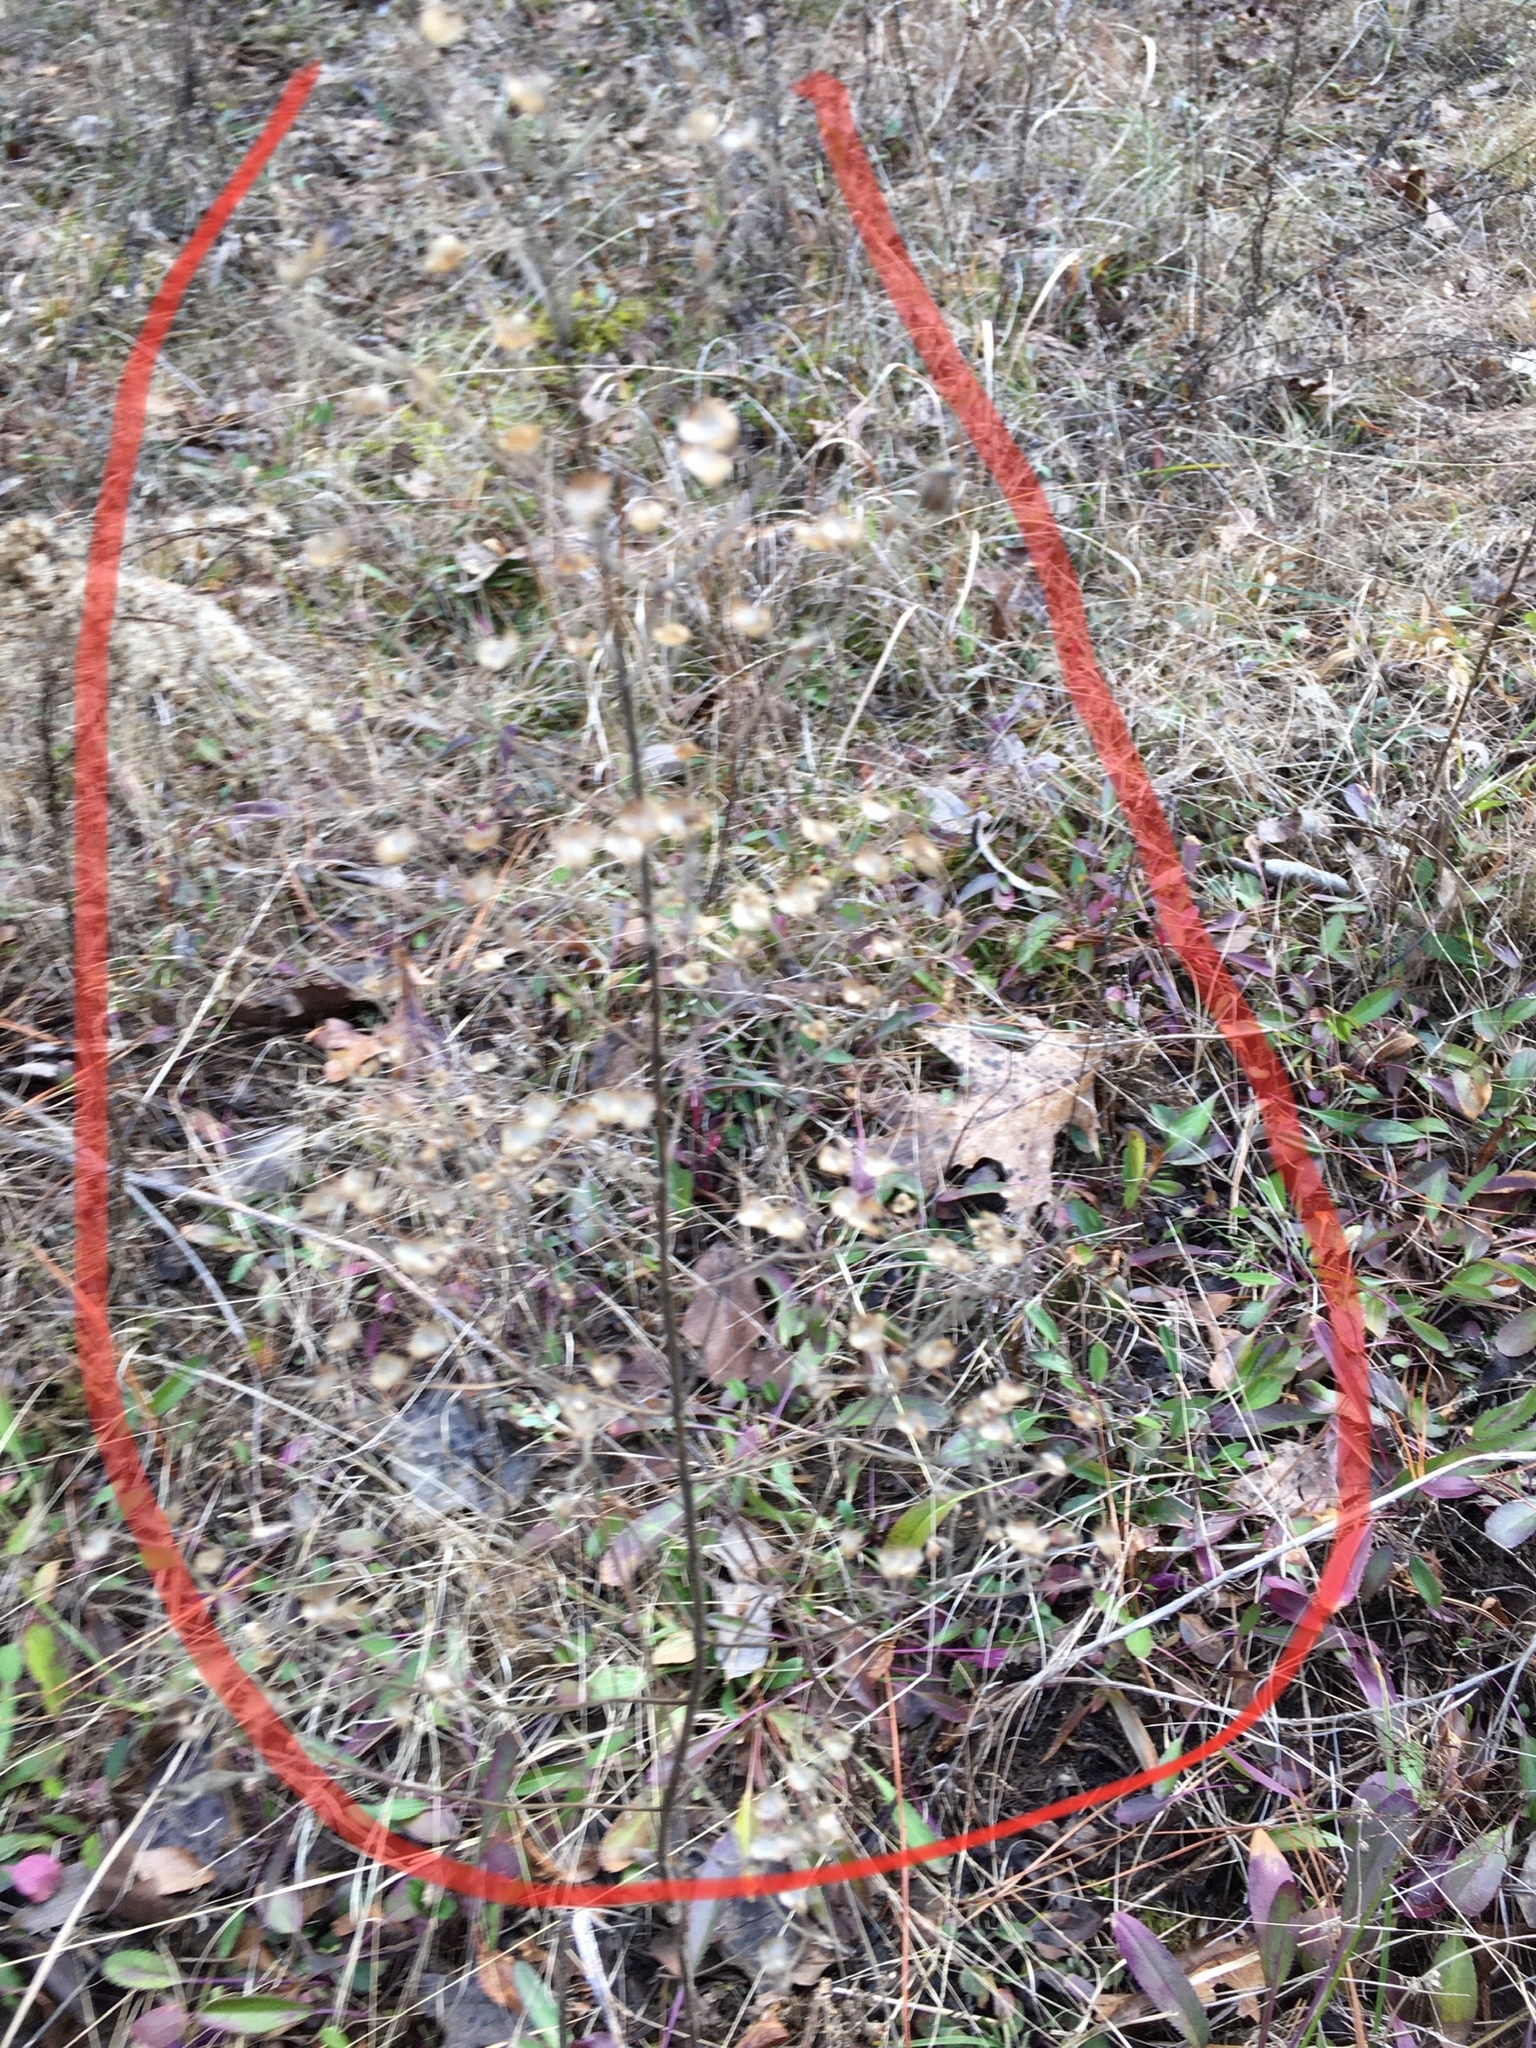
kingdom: Plantae
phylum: Tracheophyta
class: Magnoliopsida
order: Lamiales
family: Lamiaceae
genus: Trichostema
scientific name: Trichostema dichotomum
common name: Bastard pennyroyal
